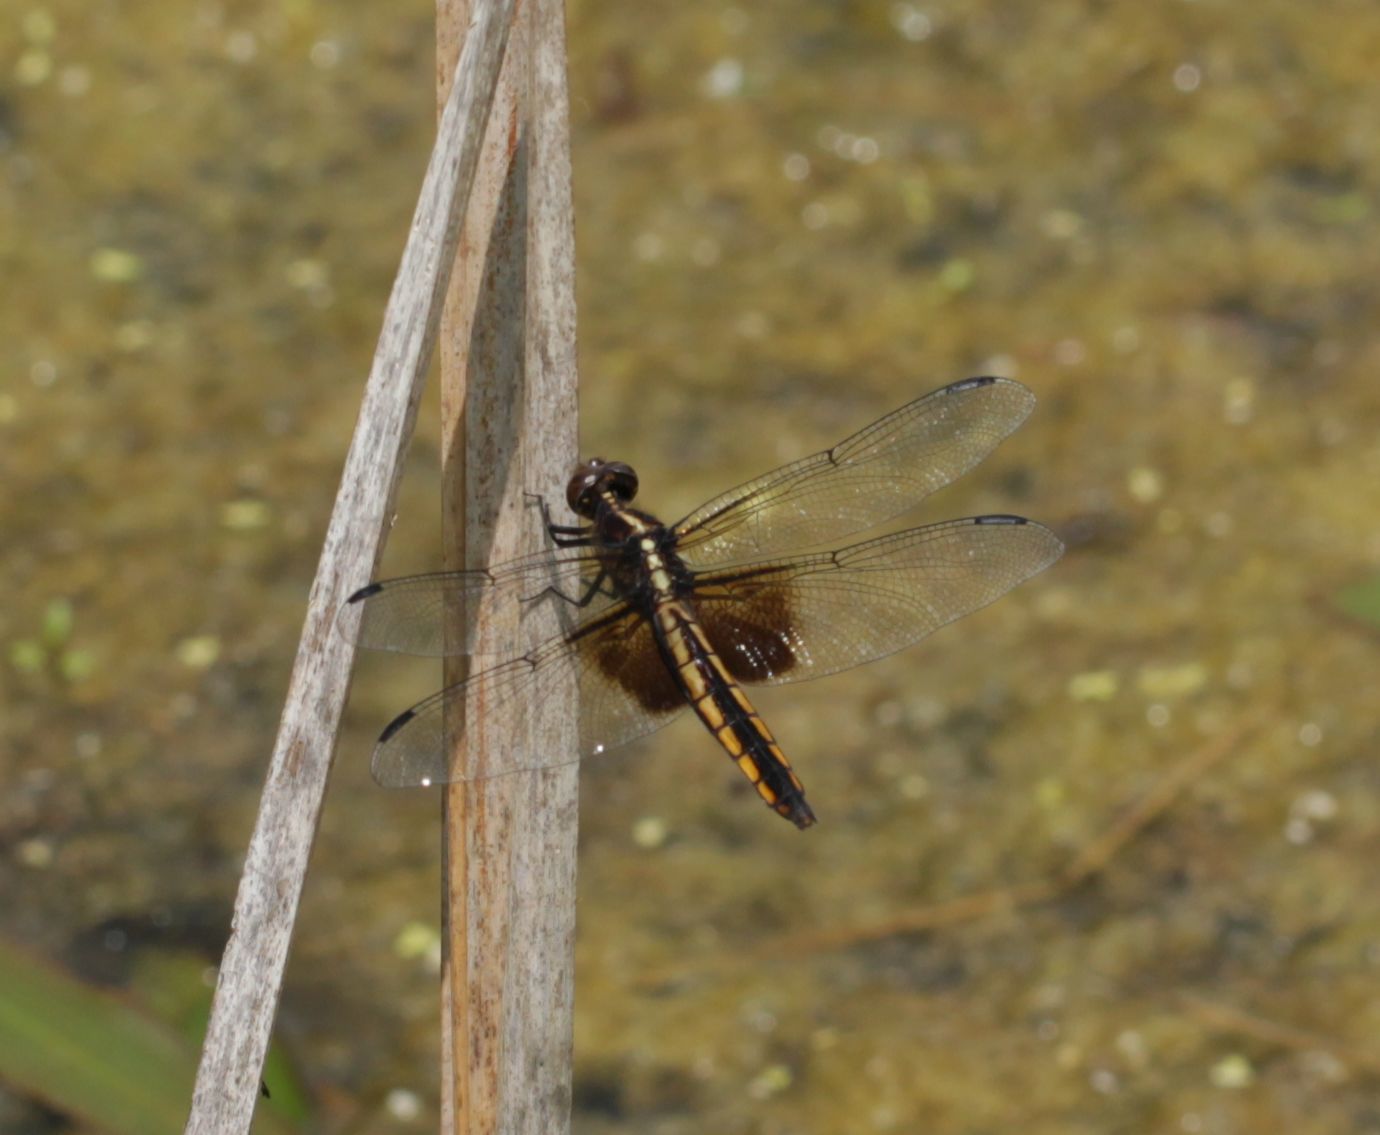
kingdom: Animalia
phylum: Arthropoda
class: Insecta
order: Odonata
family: Libellulidae
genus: Libellula
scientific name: Libellula luctuosa
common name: Widow skimmer
